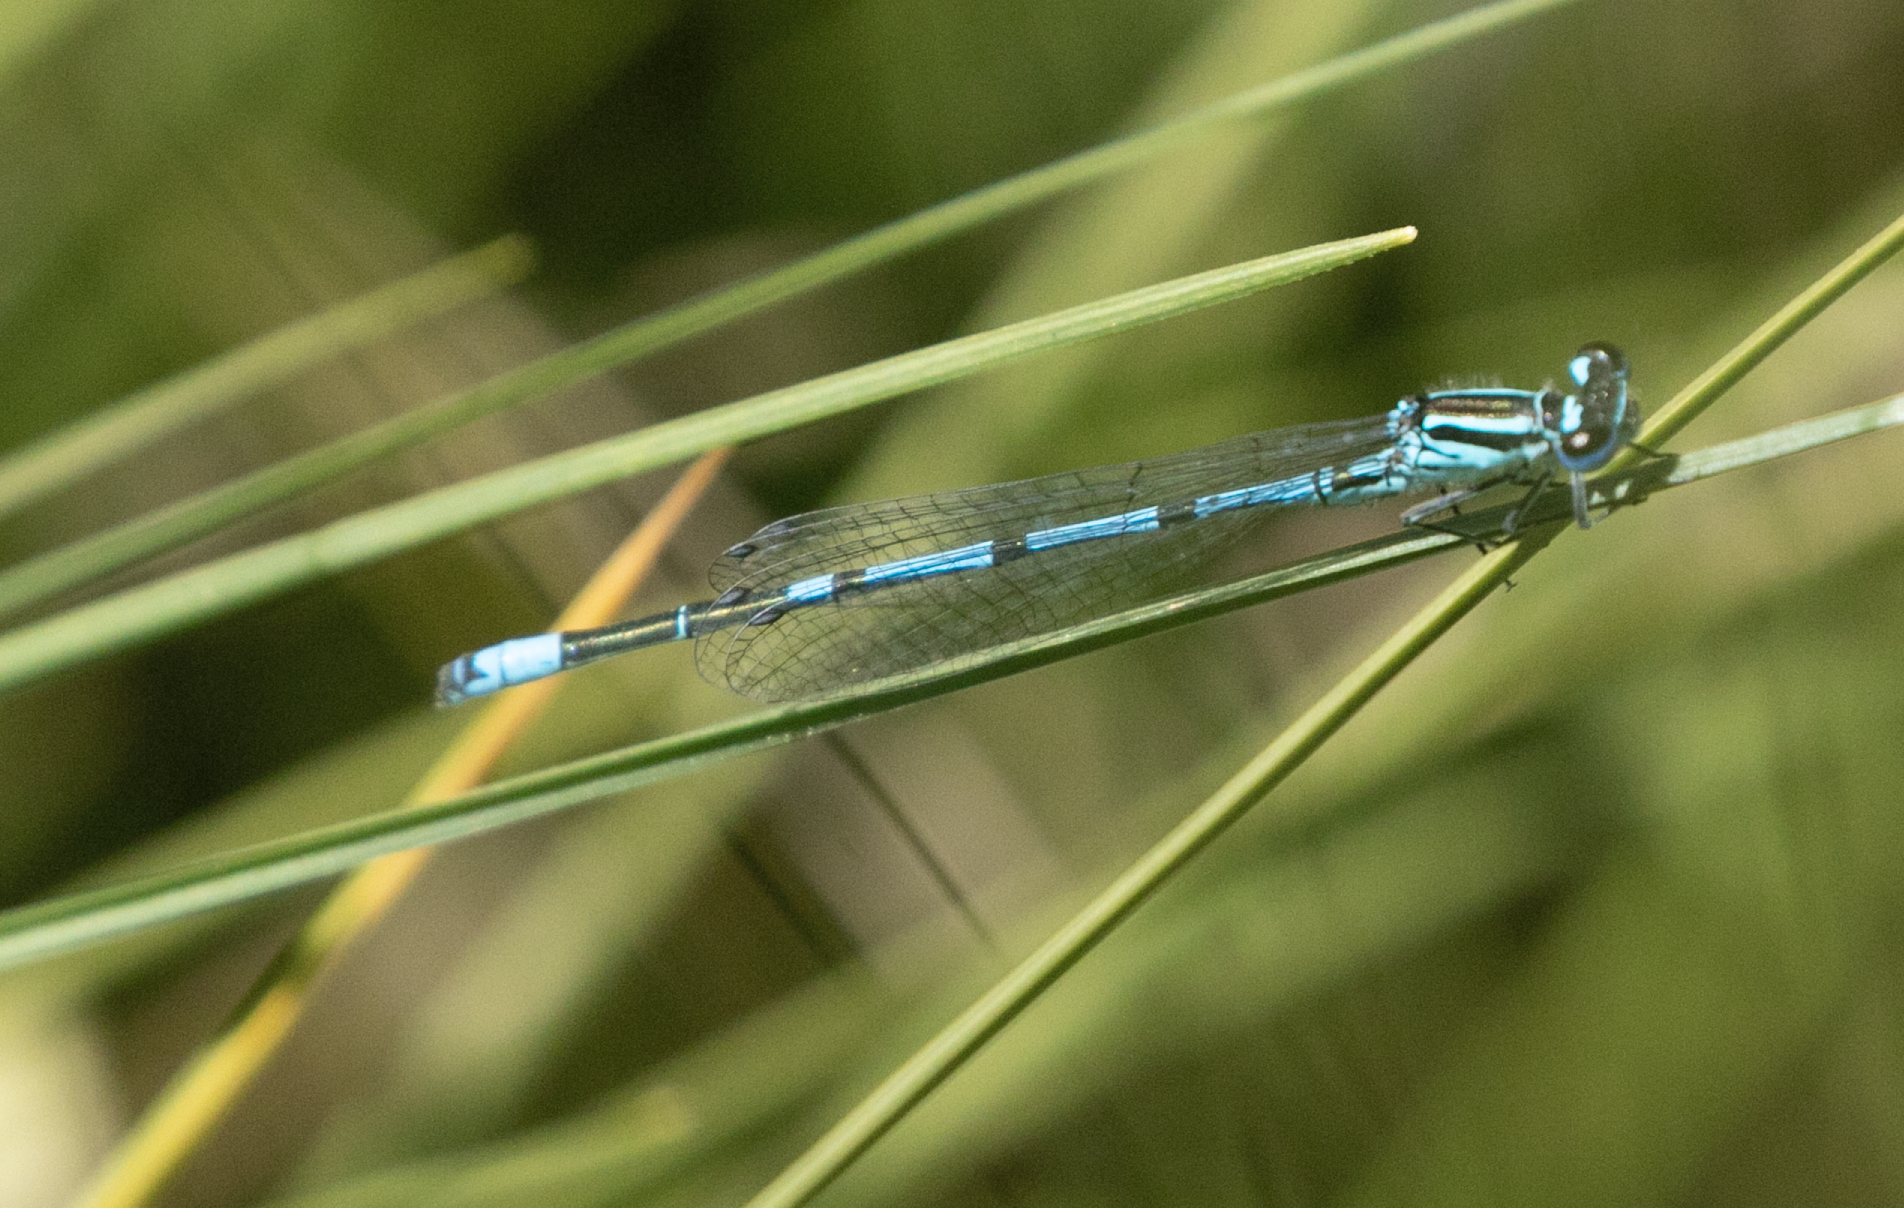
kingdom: Animalia
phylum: Arthropoda
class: Insecta
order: Odonata
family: Coenagrionidae
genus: Coenagrion
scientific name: Coenagrion puella
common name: Azure damselfly
